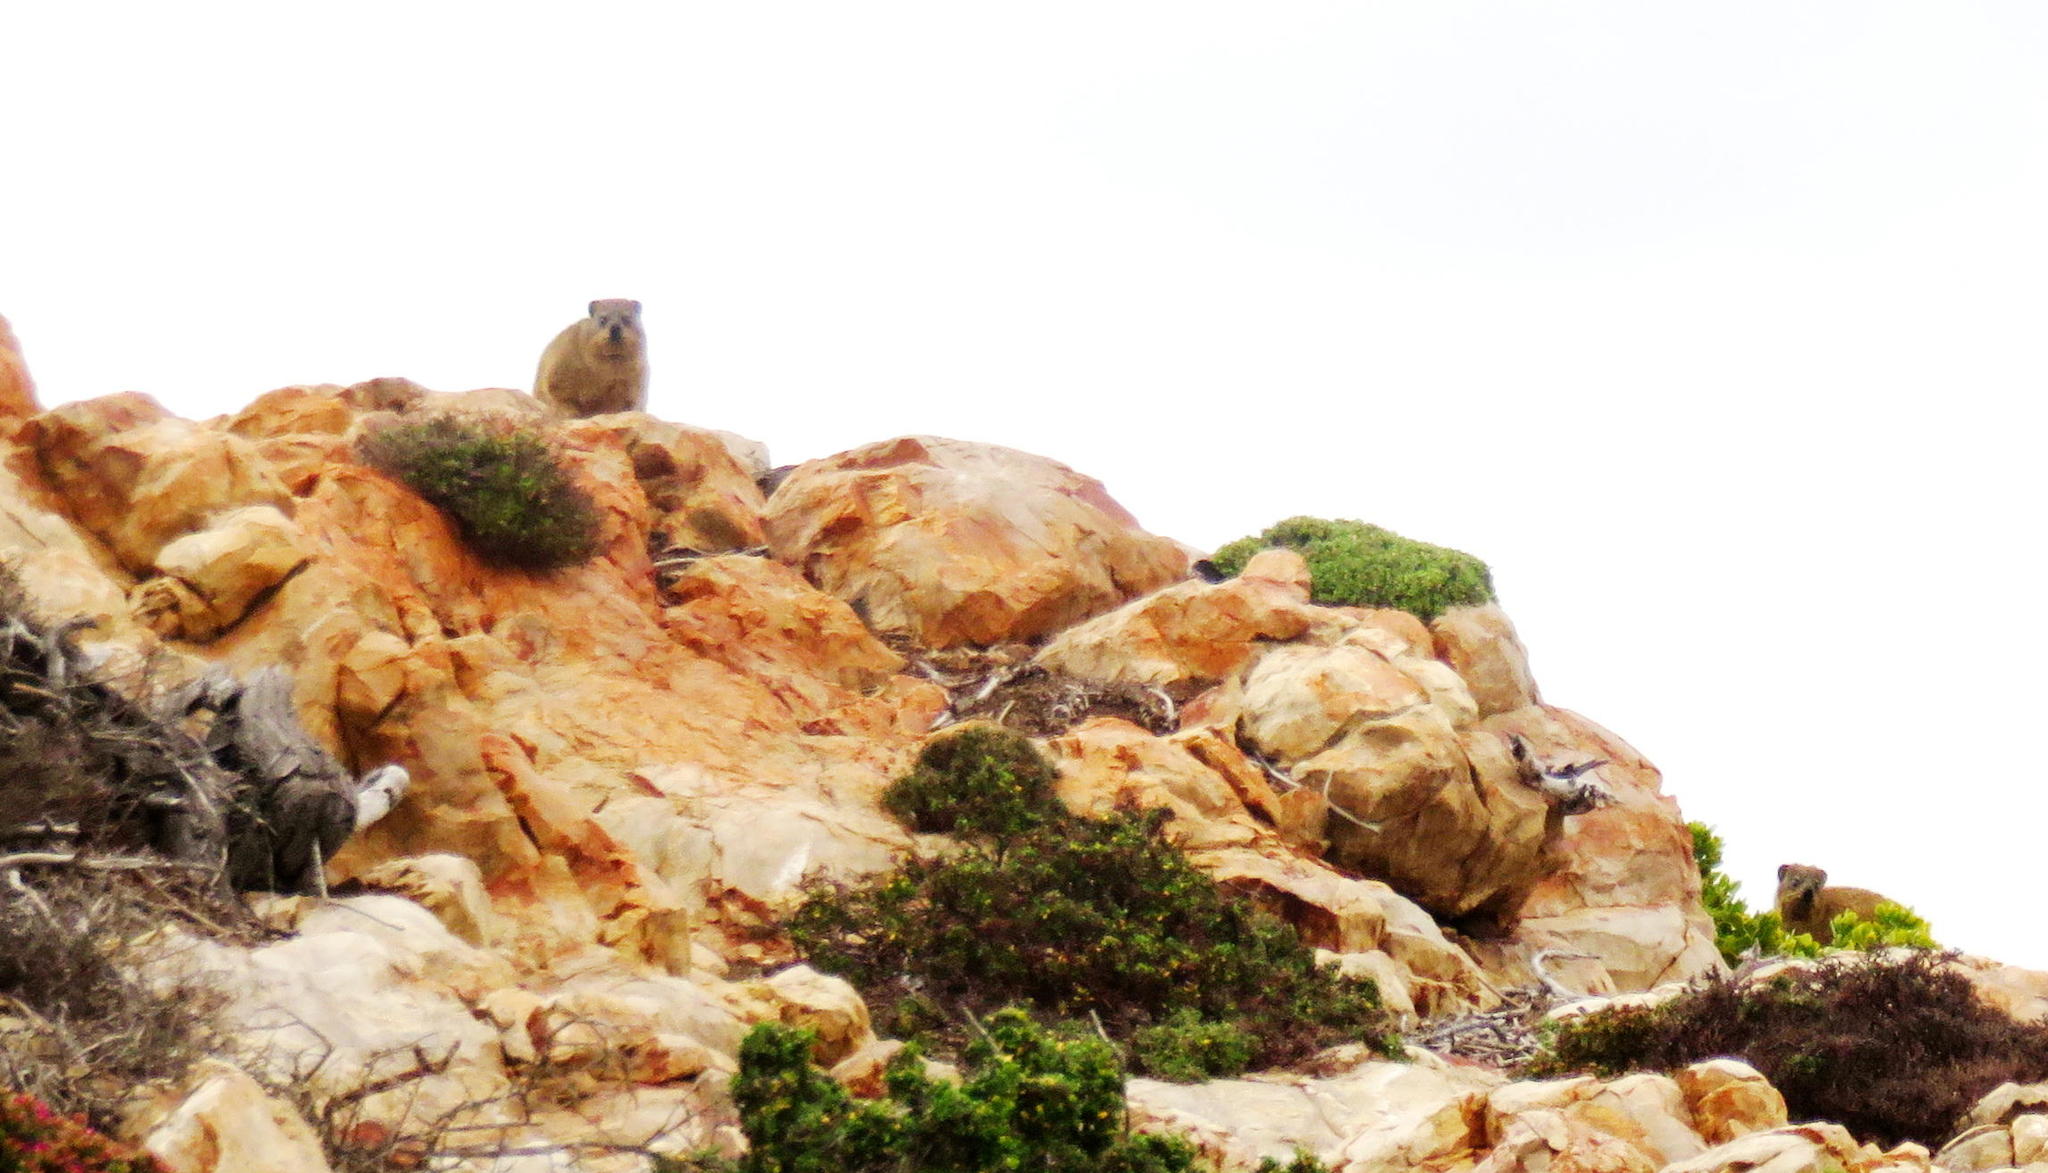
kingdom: Animalia
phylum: Chordata
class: Mammalia
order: Hyracoidea
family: Procaviidae
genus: Procavia
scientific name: Procavia capensis
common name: Rock hyrax
